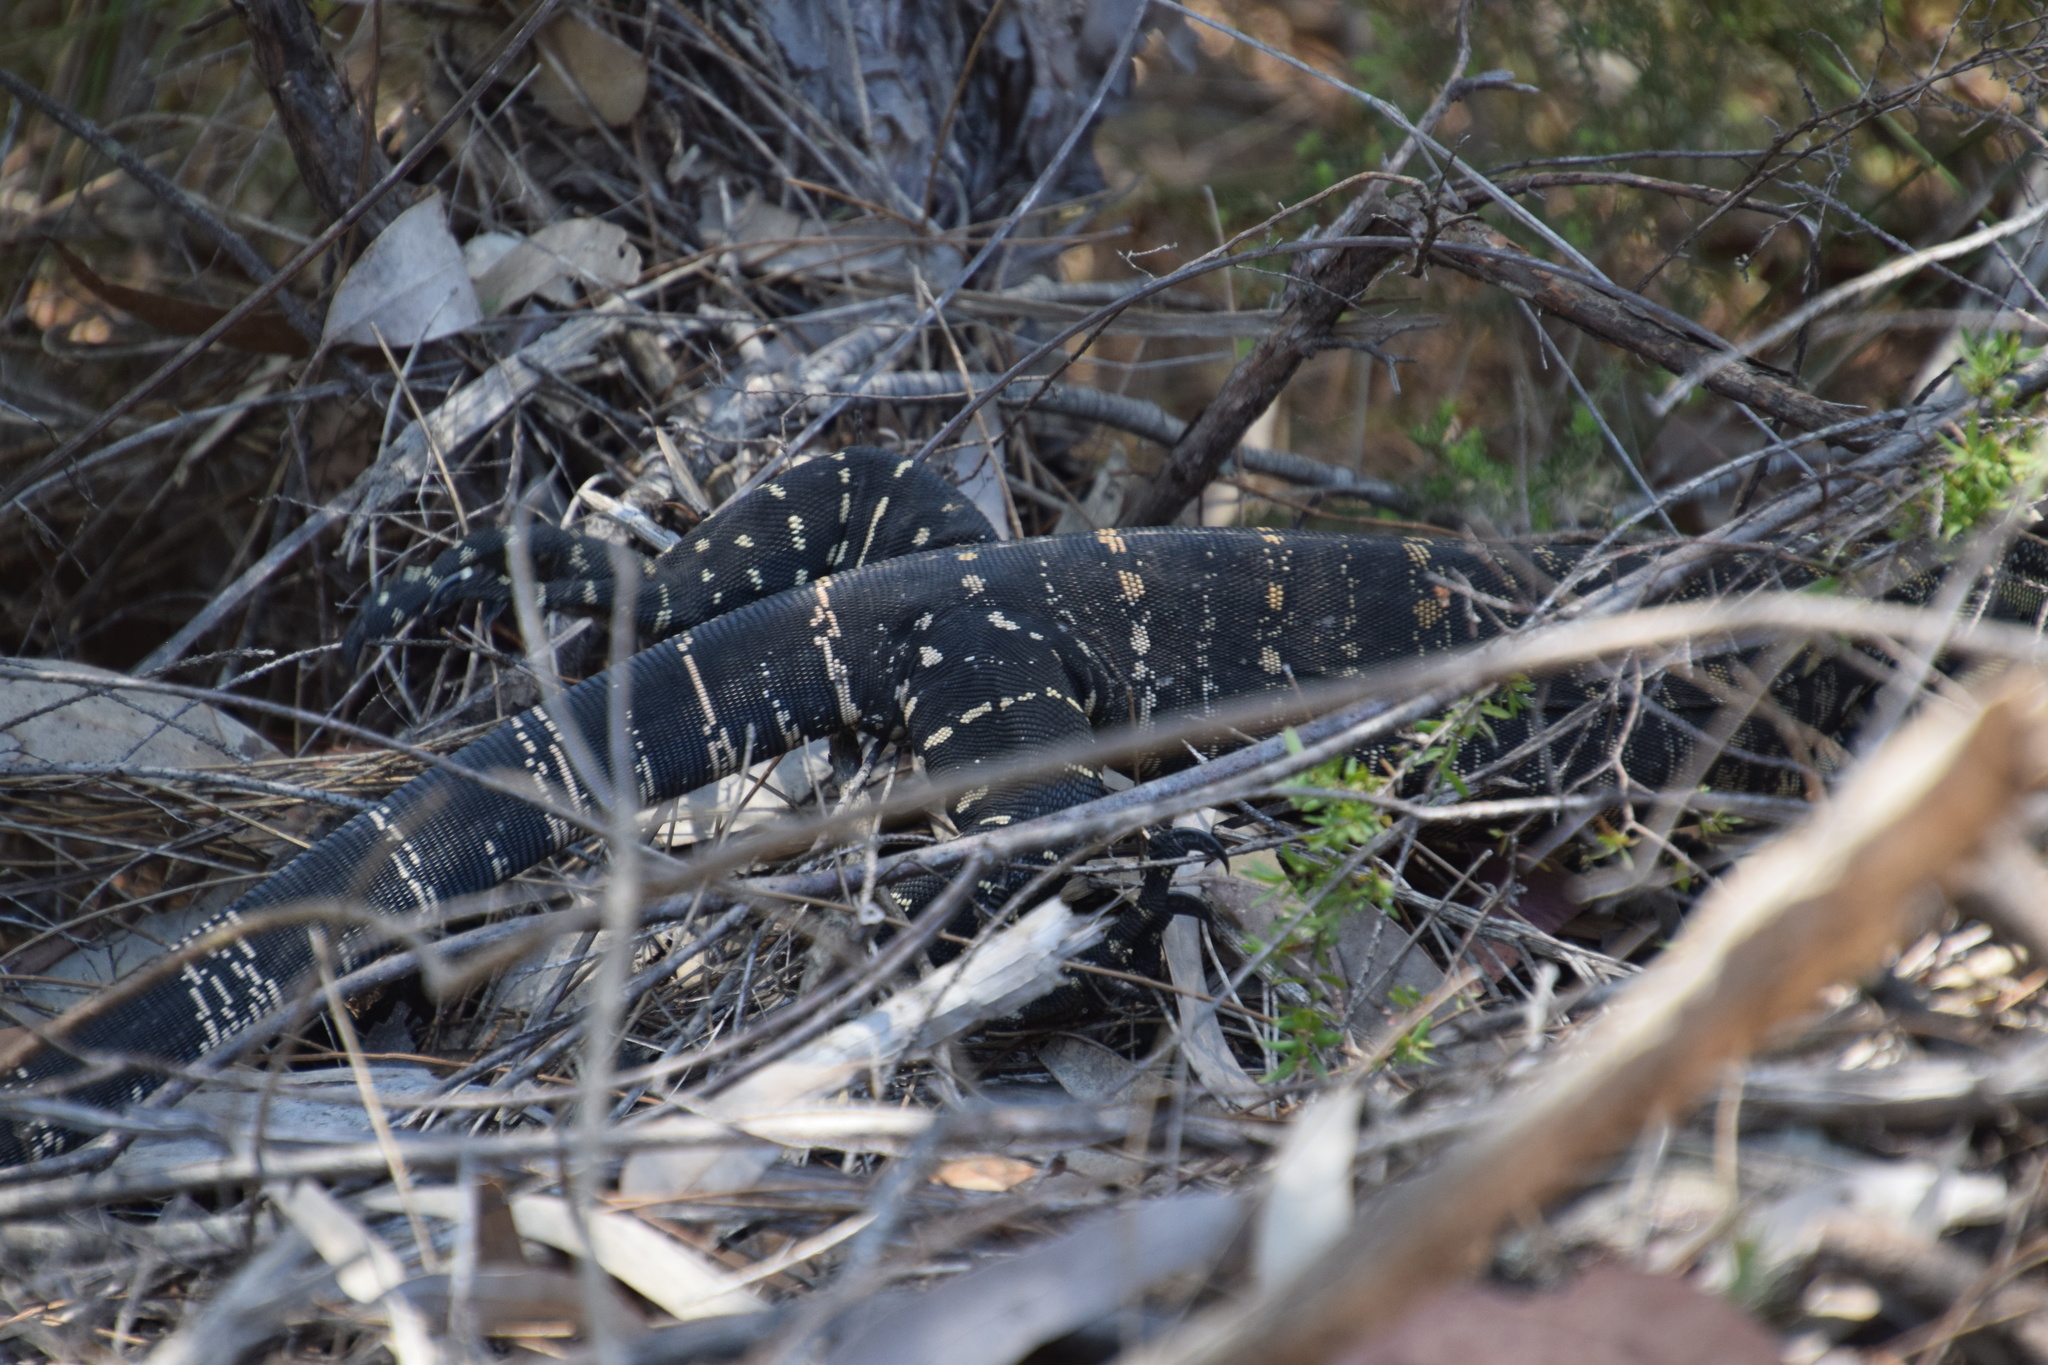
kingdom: Animalia
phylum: Chordata
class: Squamata
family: Varanidae
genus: Varanus
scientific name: Varanus varius
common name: Lace monitor
